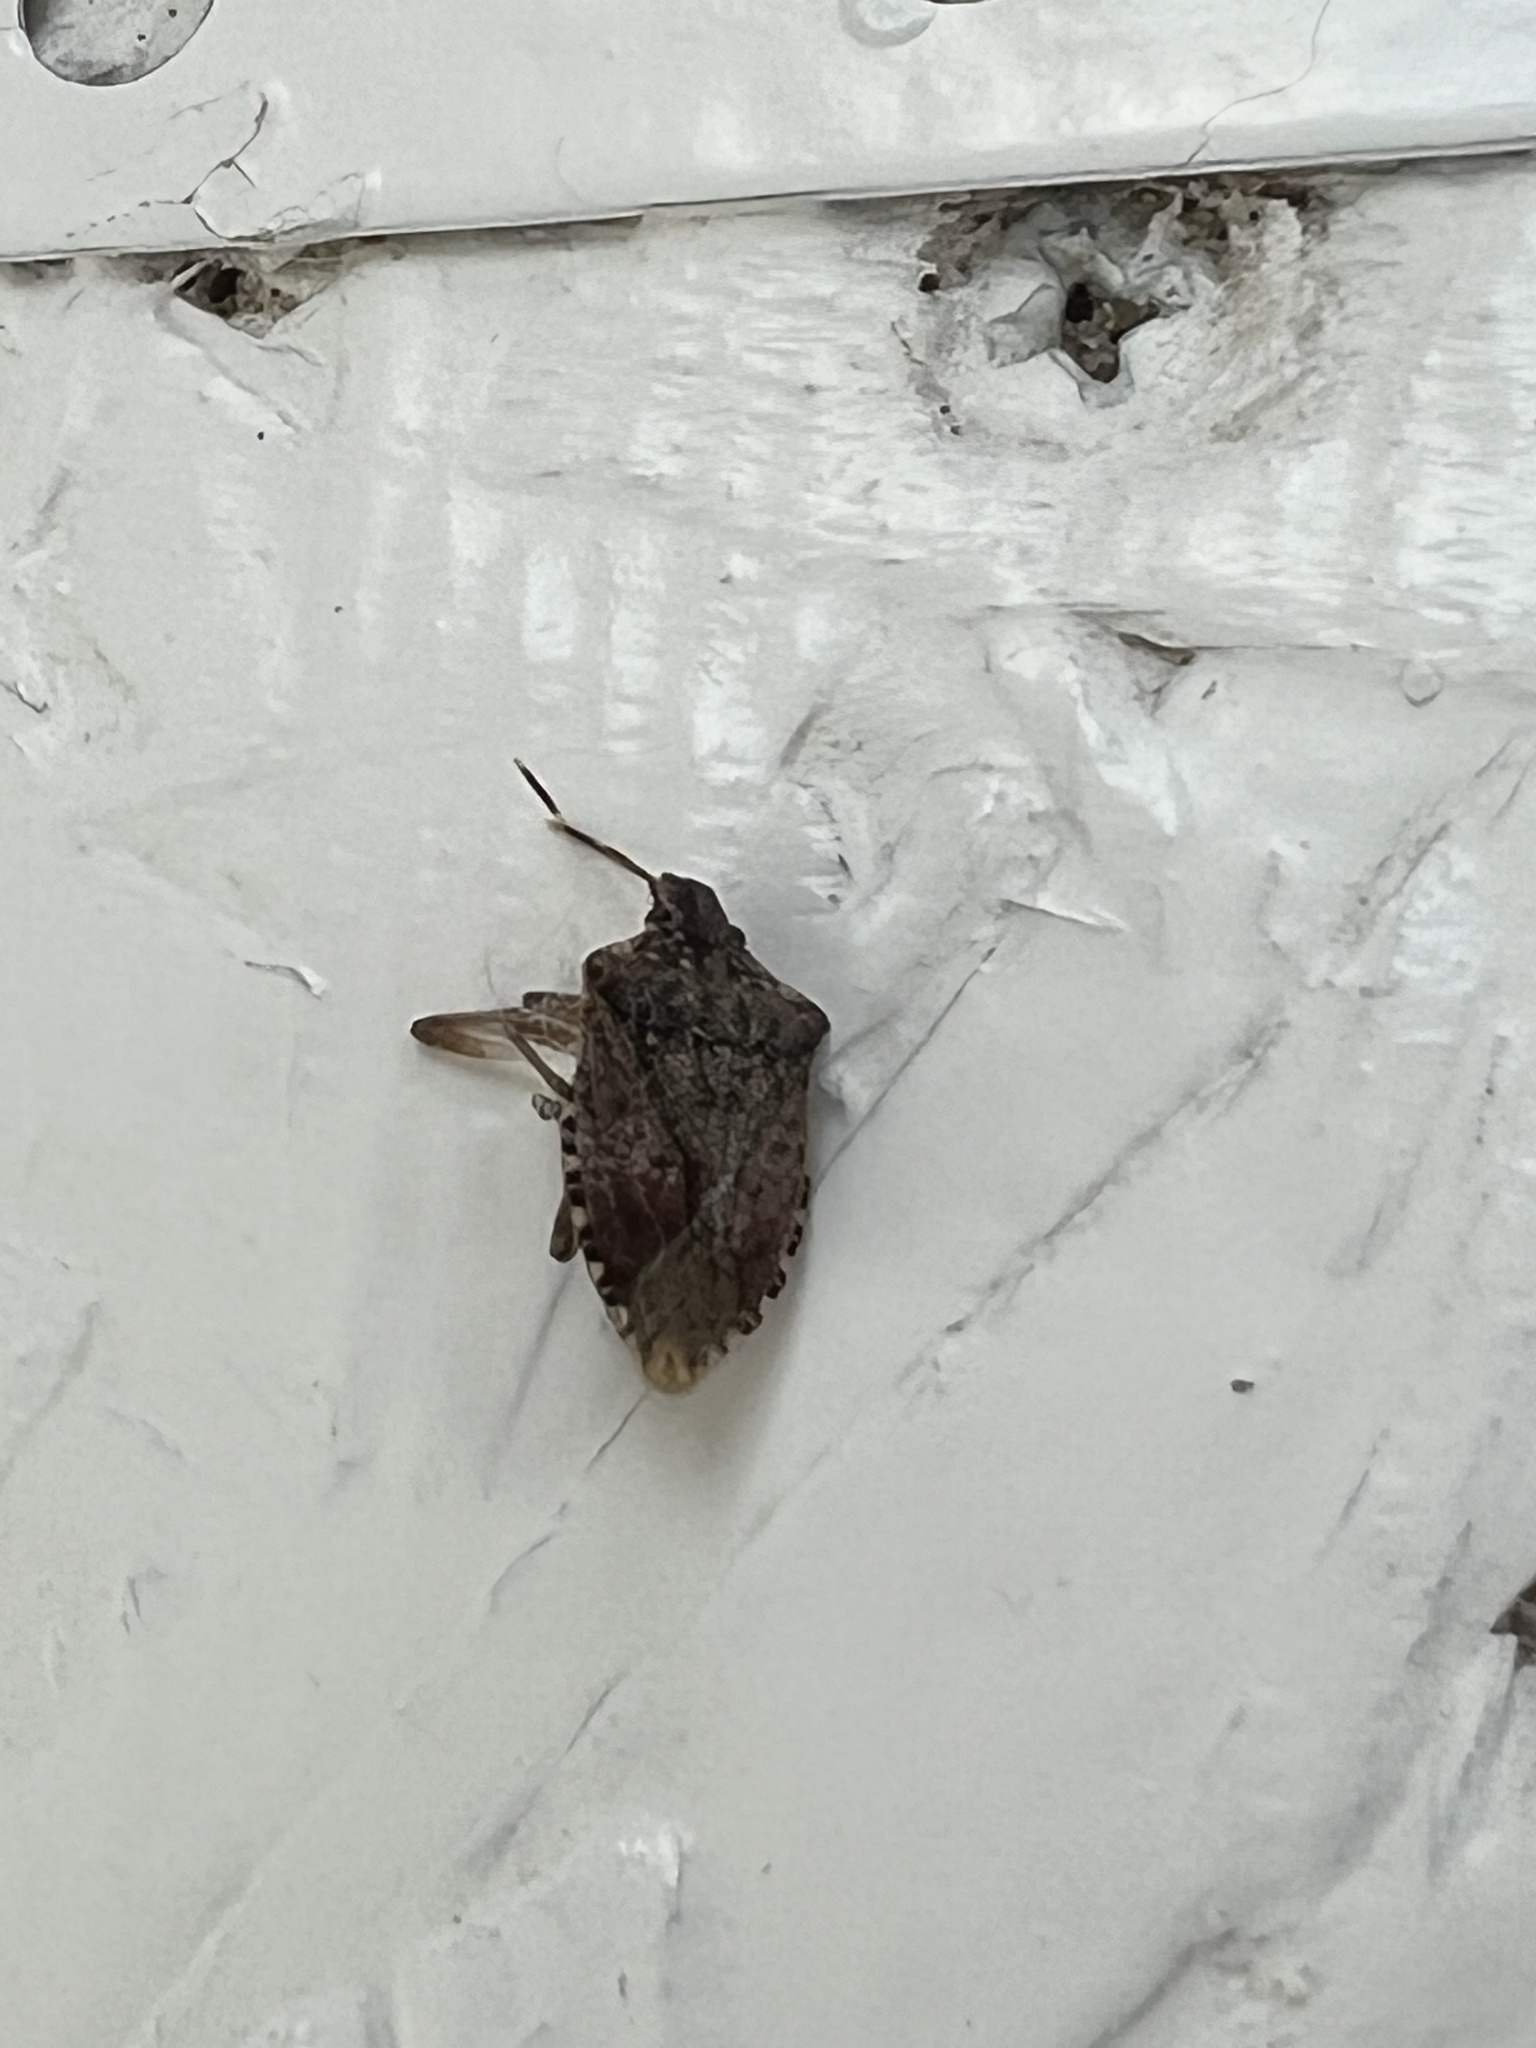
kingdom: Animalia
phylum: Arthropoda
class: Insecta
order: Hemiptera
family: Pentatomidae
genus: Halyomorpha
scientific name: Halyomorpha halys
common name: Brown marmorated stink bug
